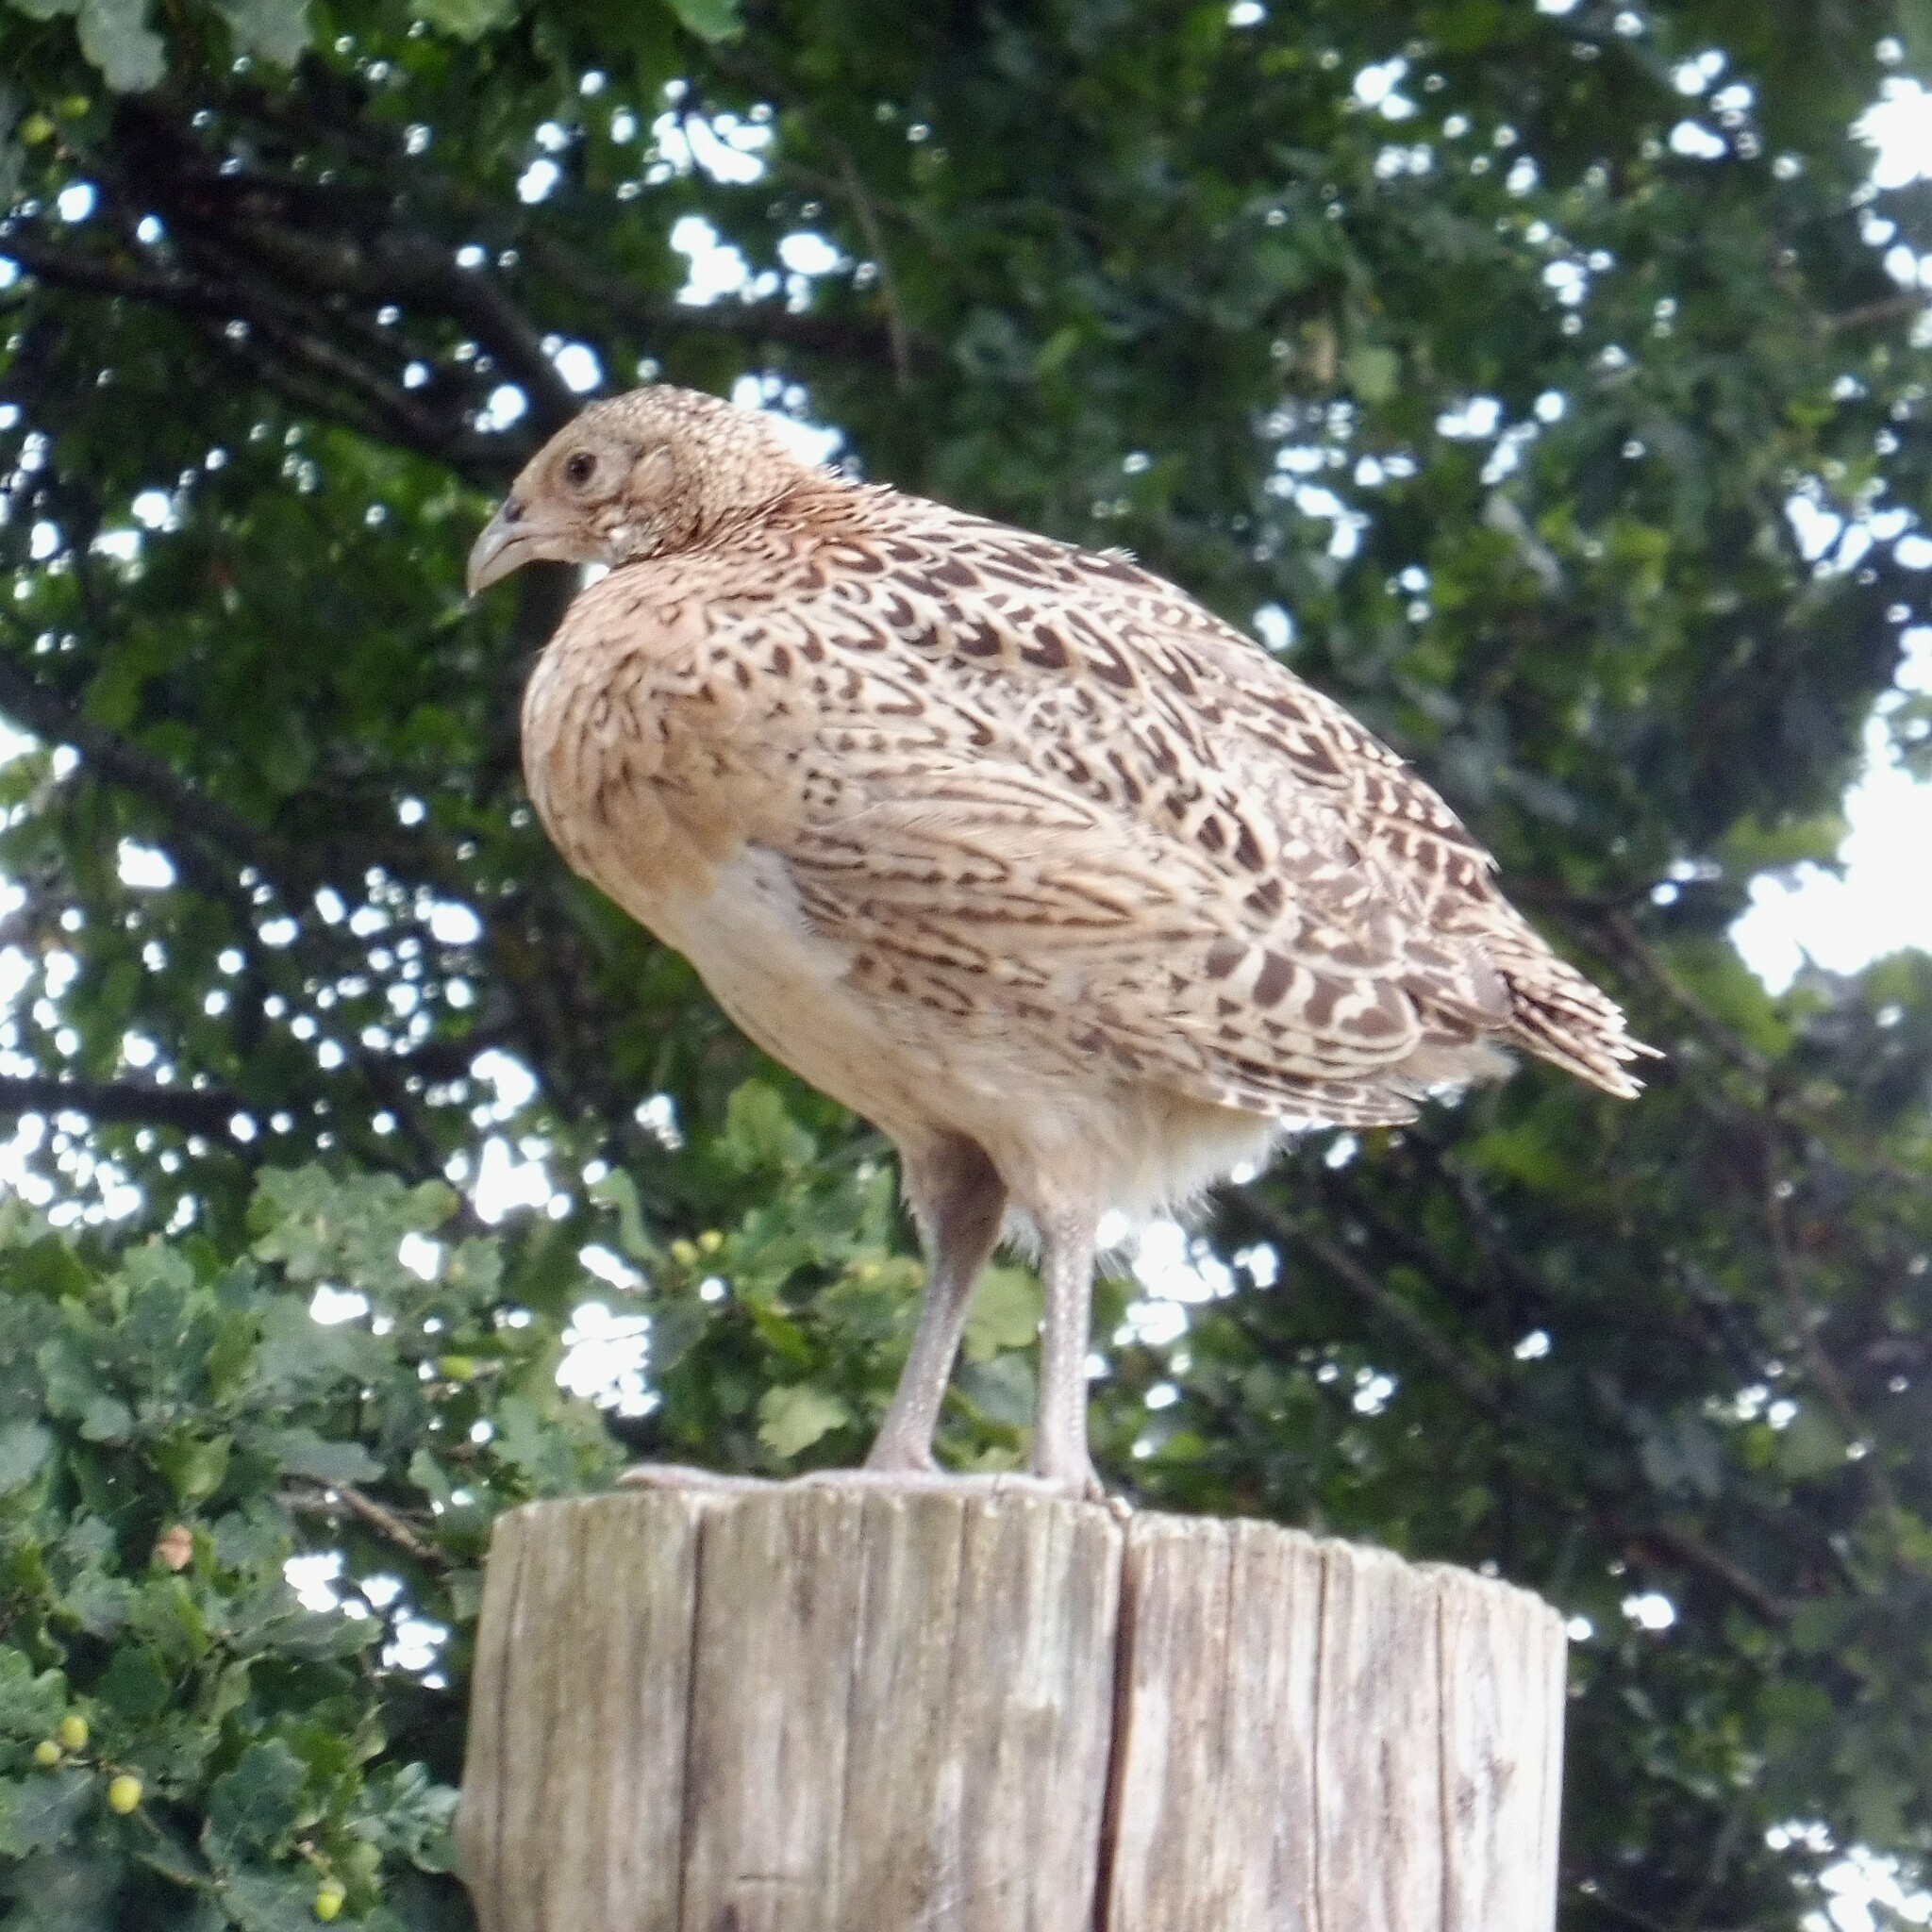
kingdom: Animalia
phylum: Chordata
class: Aves
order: Galliformes
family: Phasianidae
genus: Phasianus
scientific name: Phasianus colchicus
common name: Common pheasant
